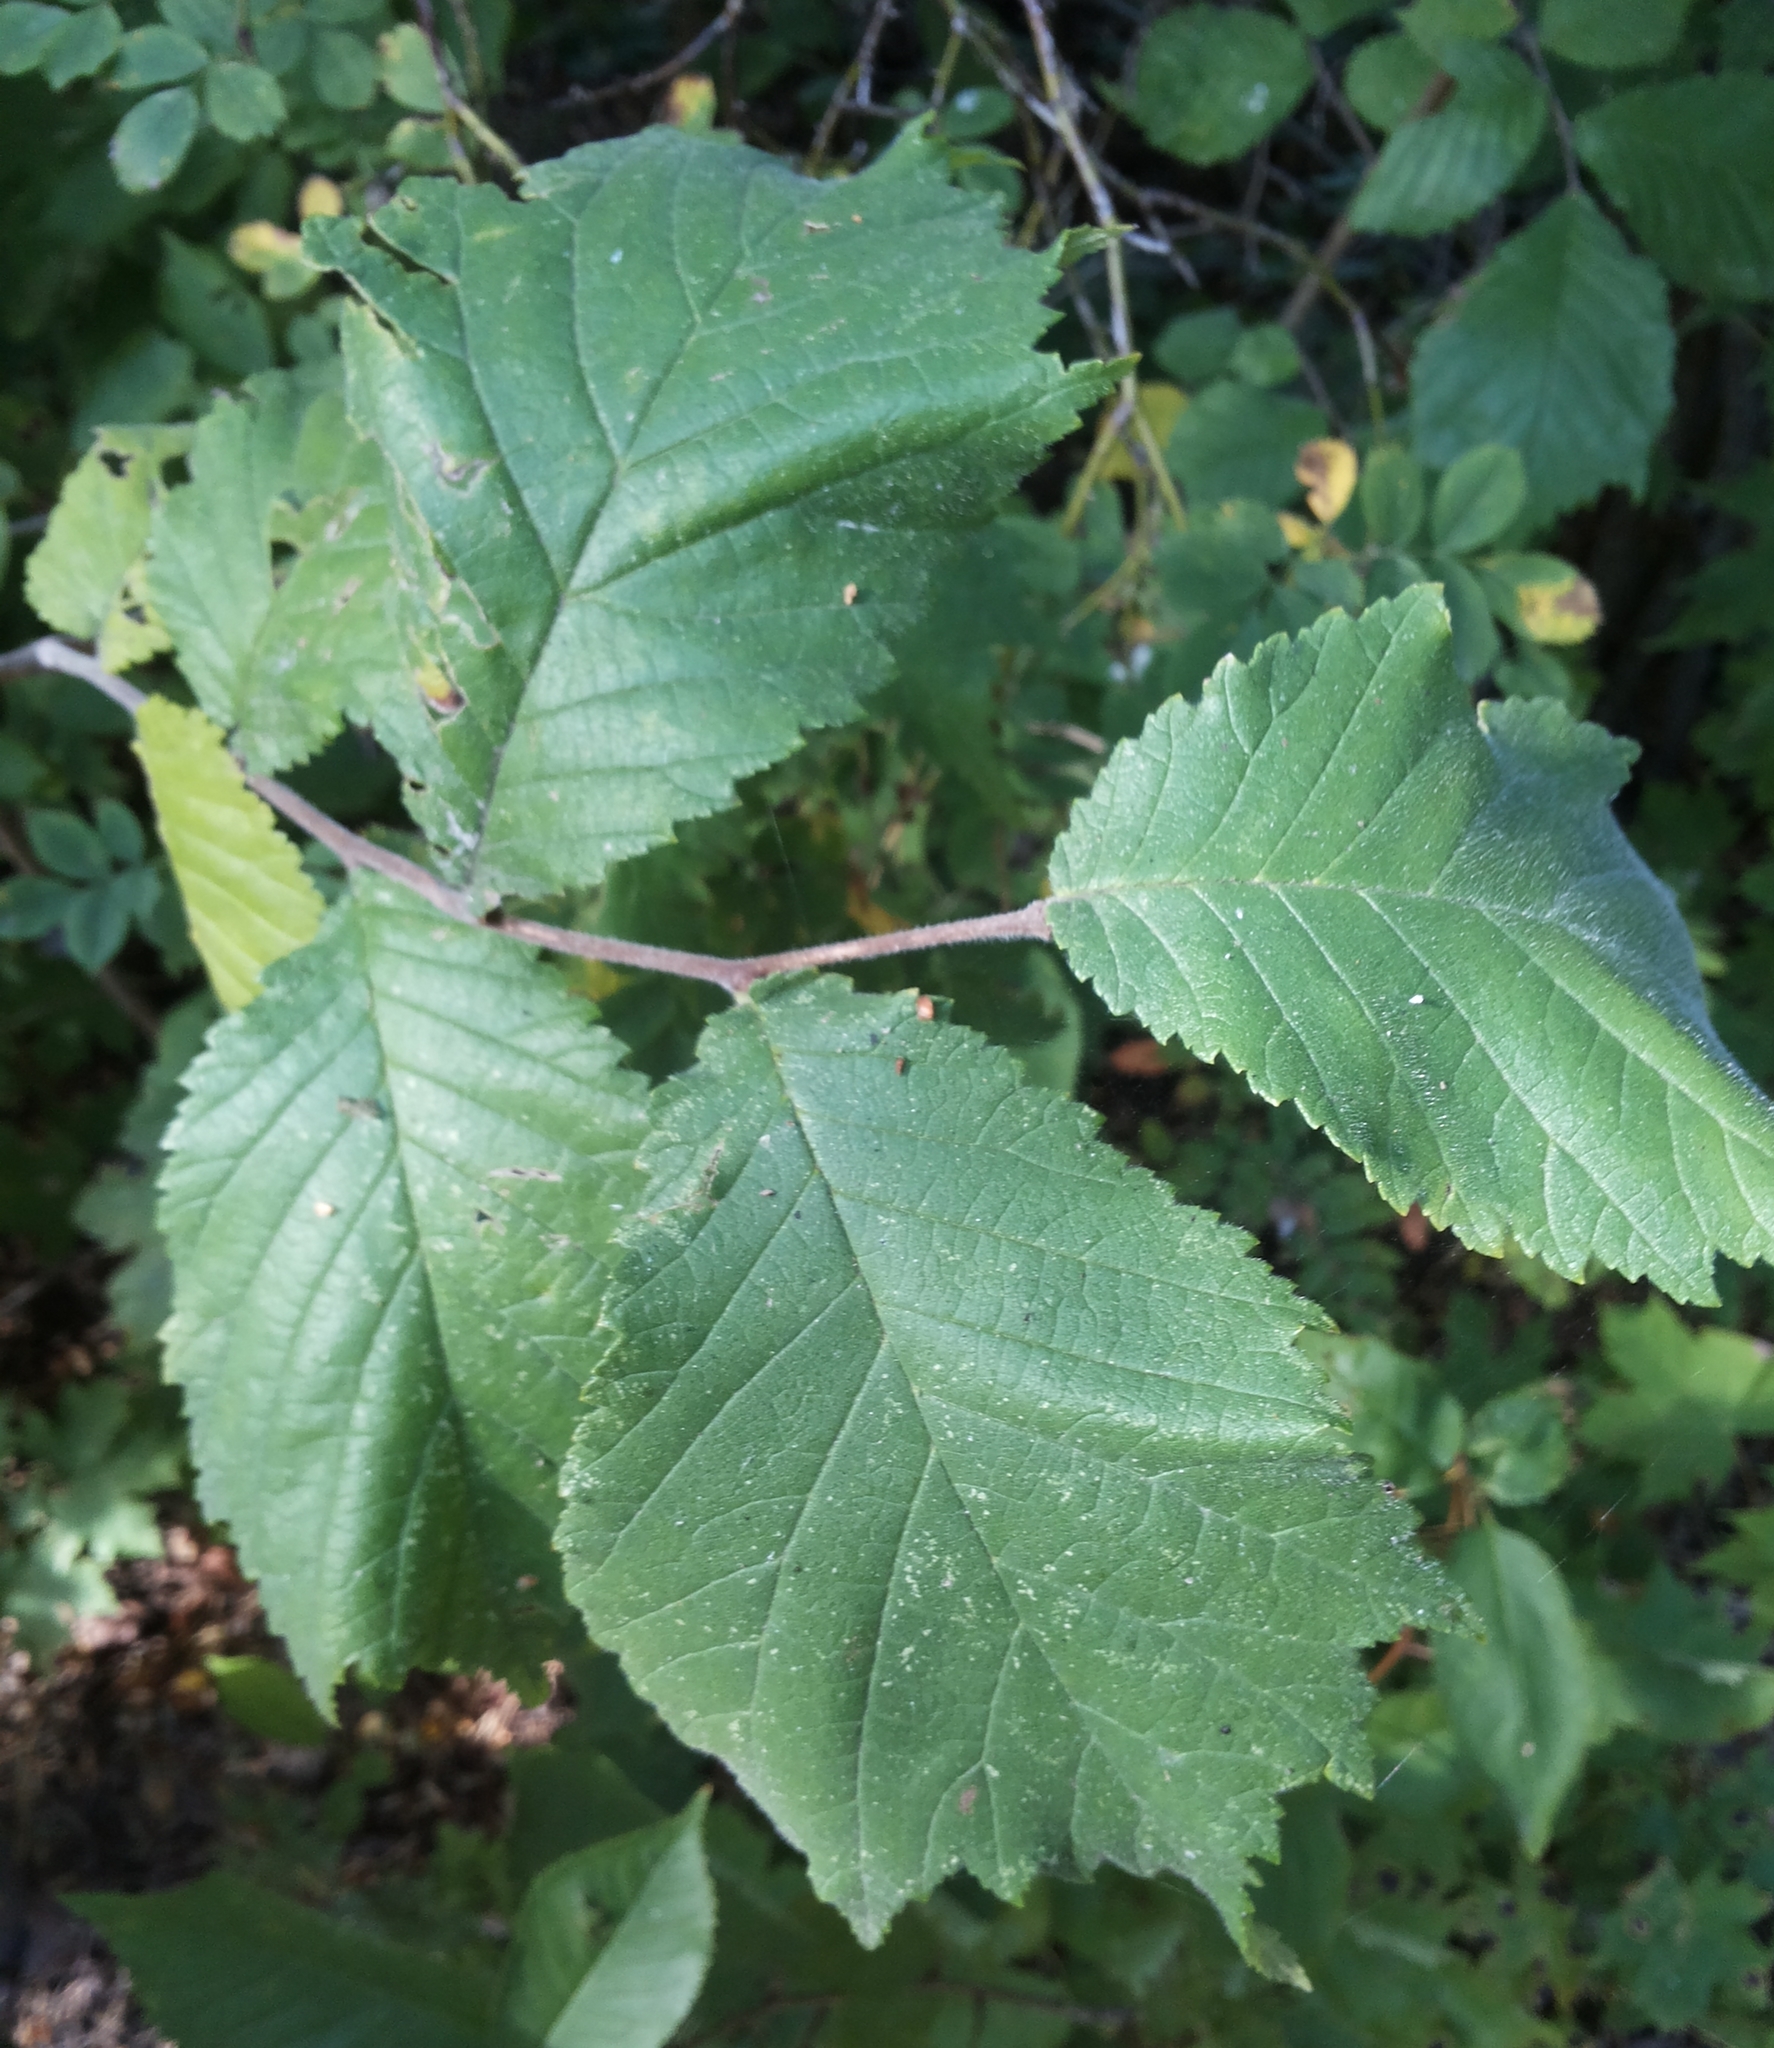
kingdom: Plantae
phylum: Tracheophyta
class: Magnoliopsida
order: Rosales
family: Ulmaceae
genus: Ulmus
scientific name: Ulmus glabra
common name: Wych elm
